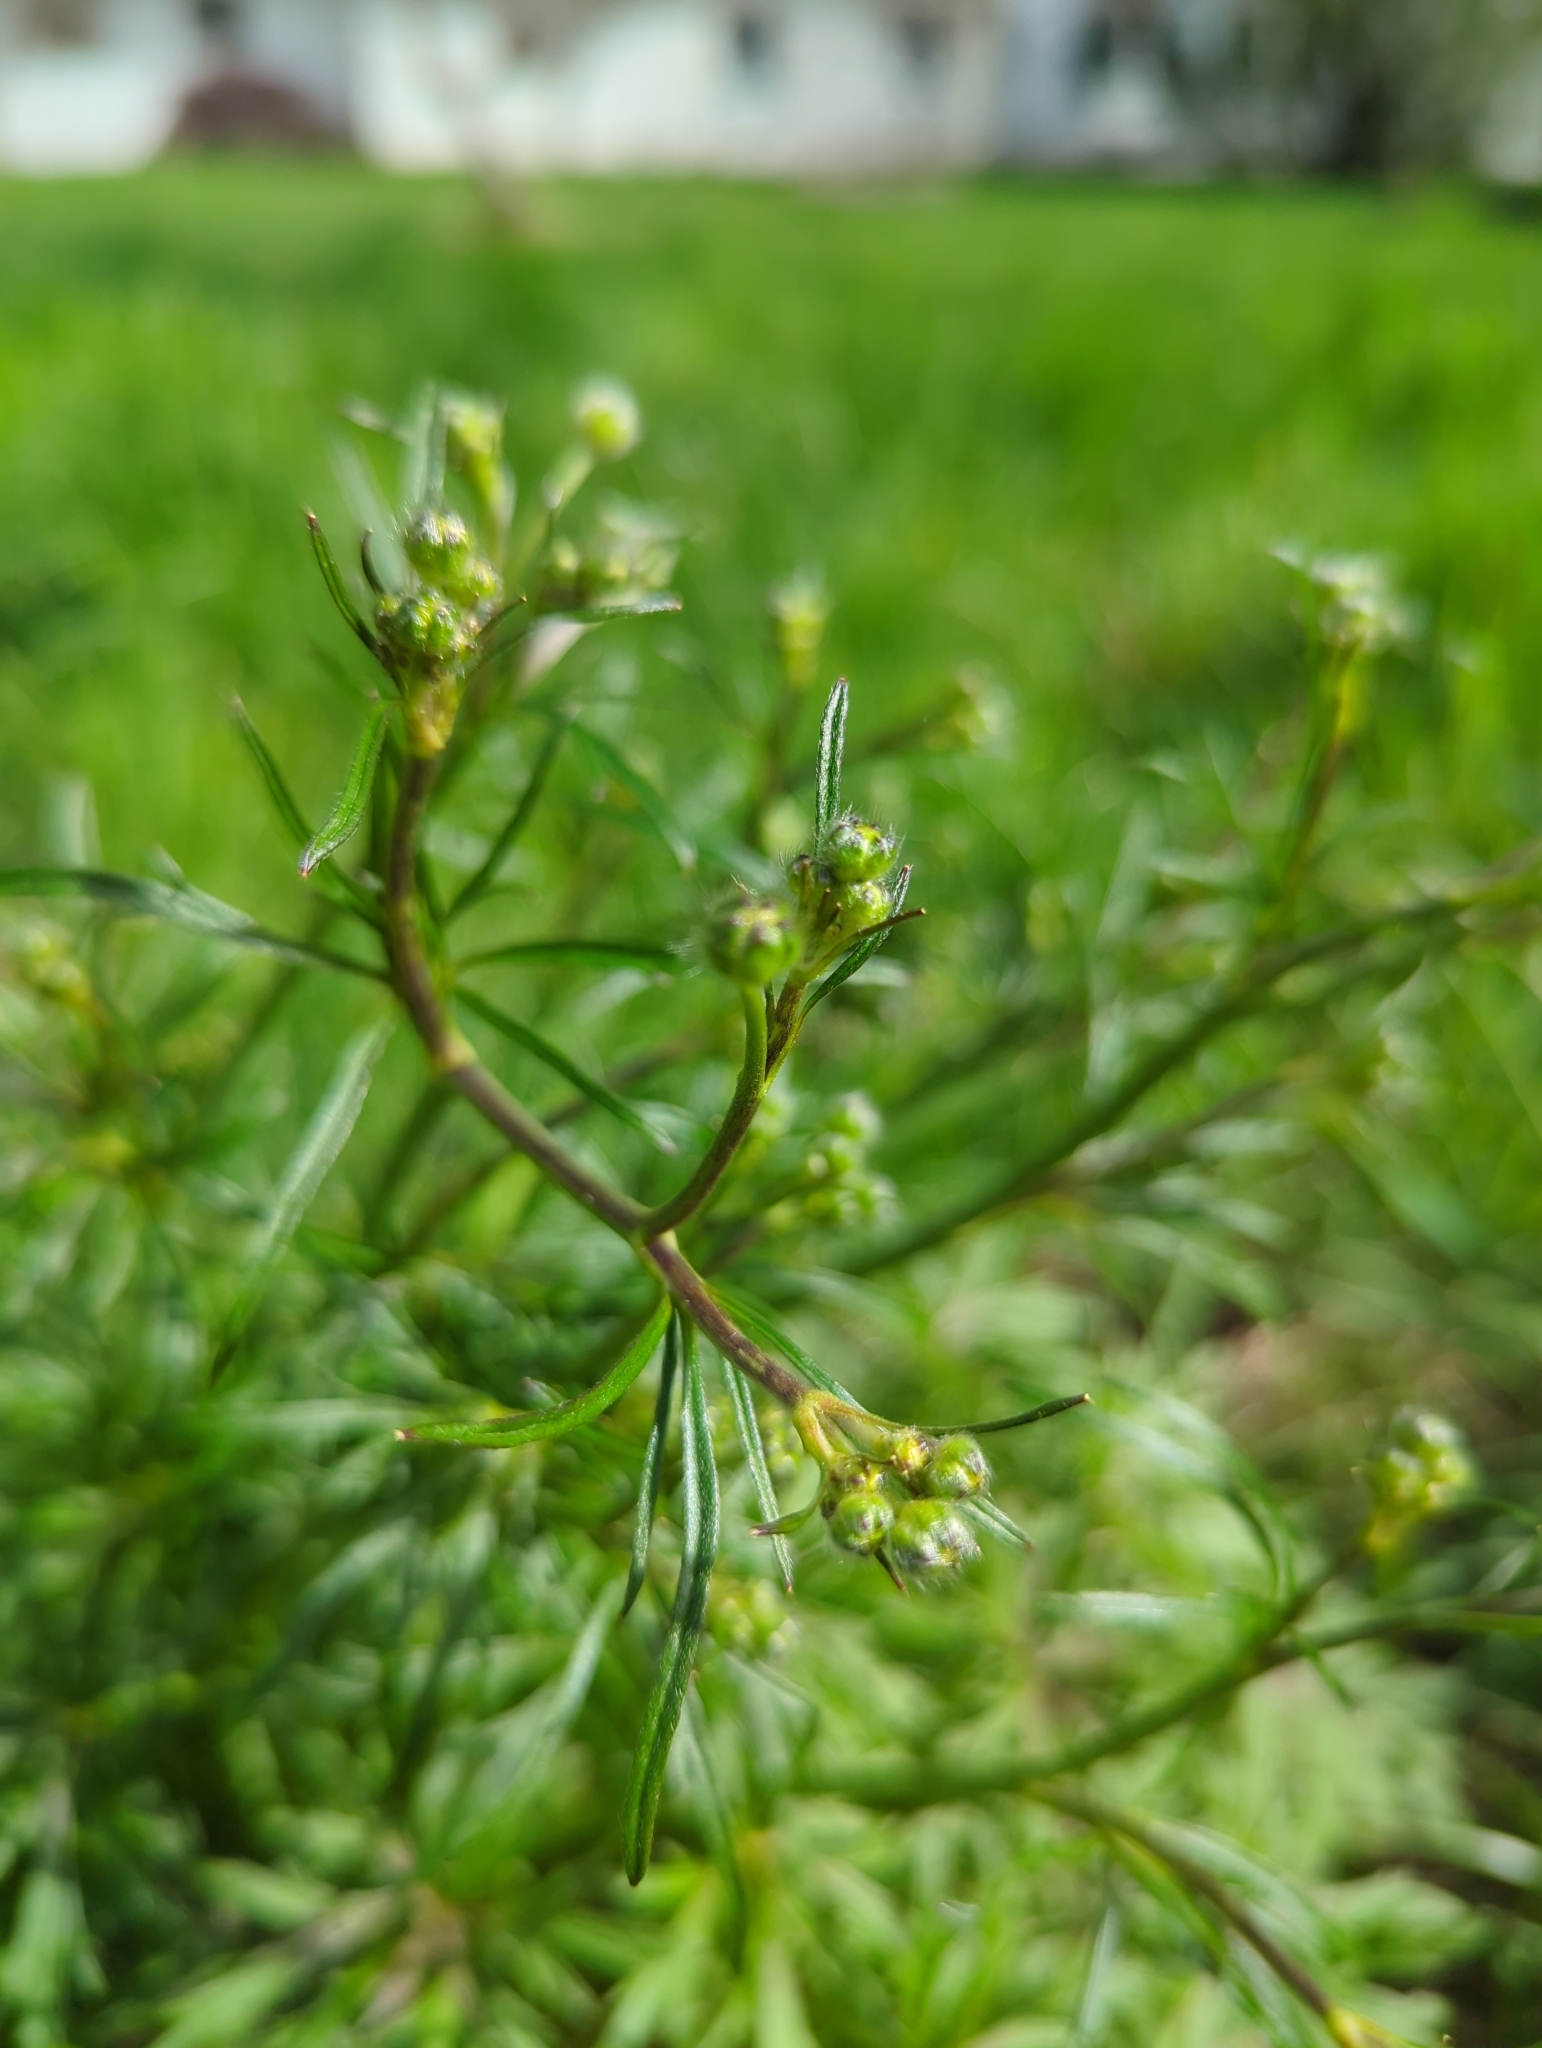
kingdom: Plantae
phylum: Tracheophyta
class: Magnoliopsida
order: Ranunculales
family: Ranunculaceae
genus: Ranunculus
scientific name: Ranunculus acris
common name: Meadow buttercup
